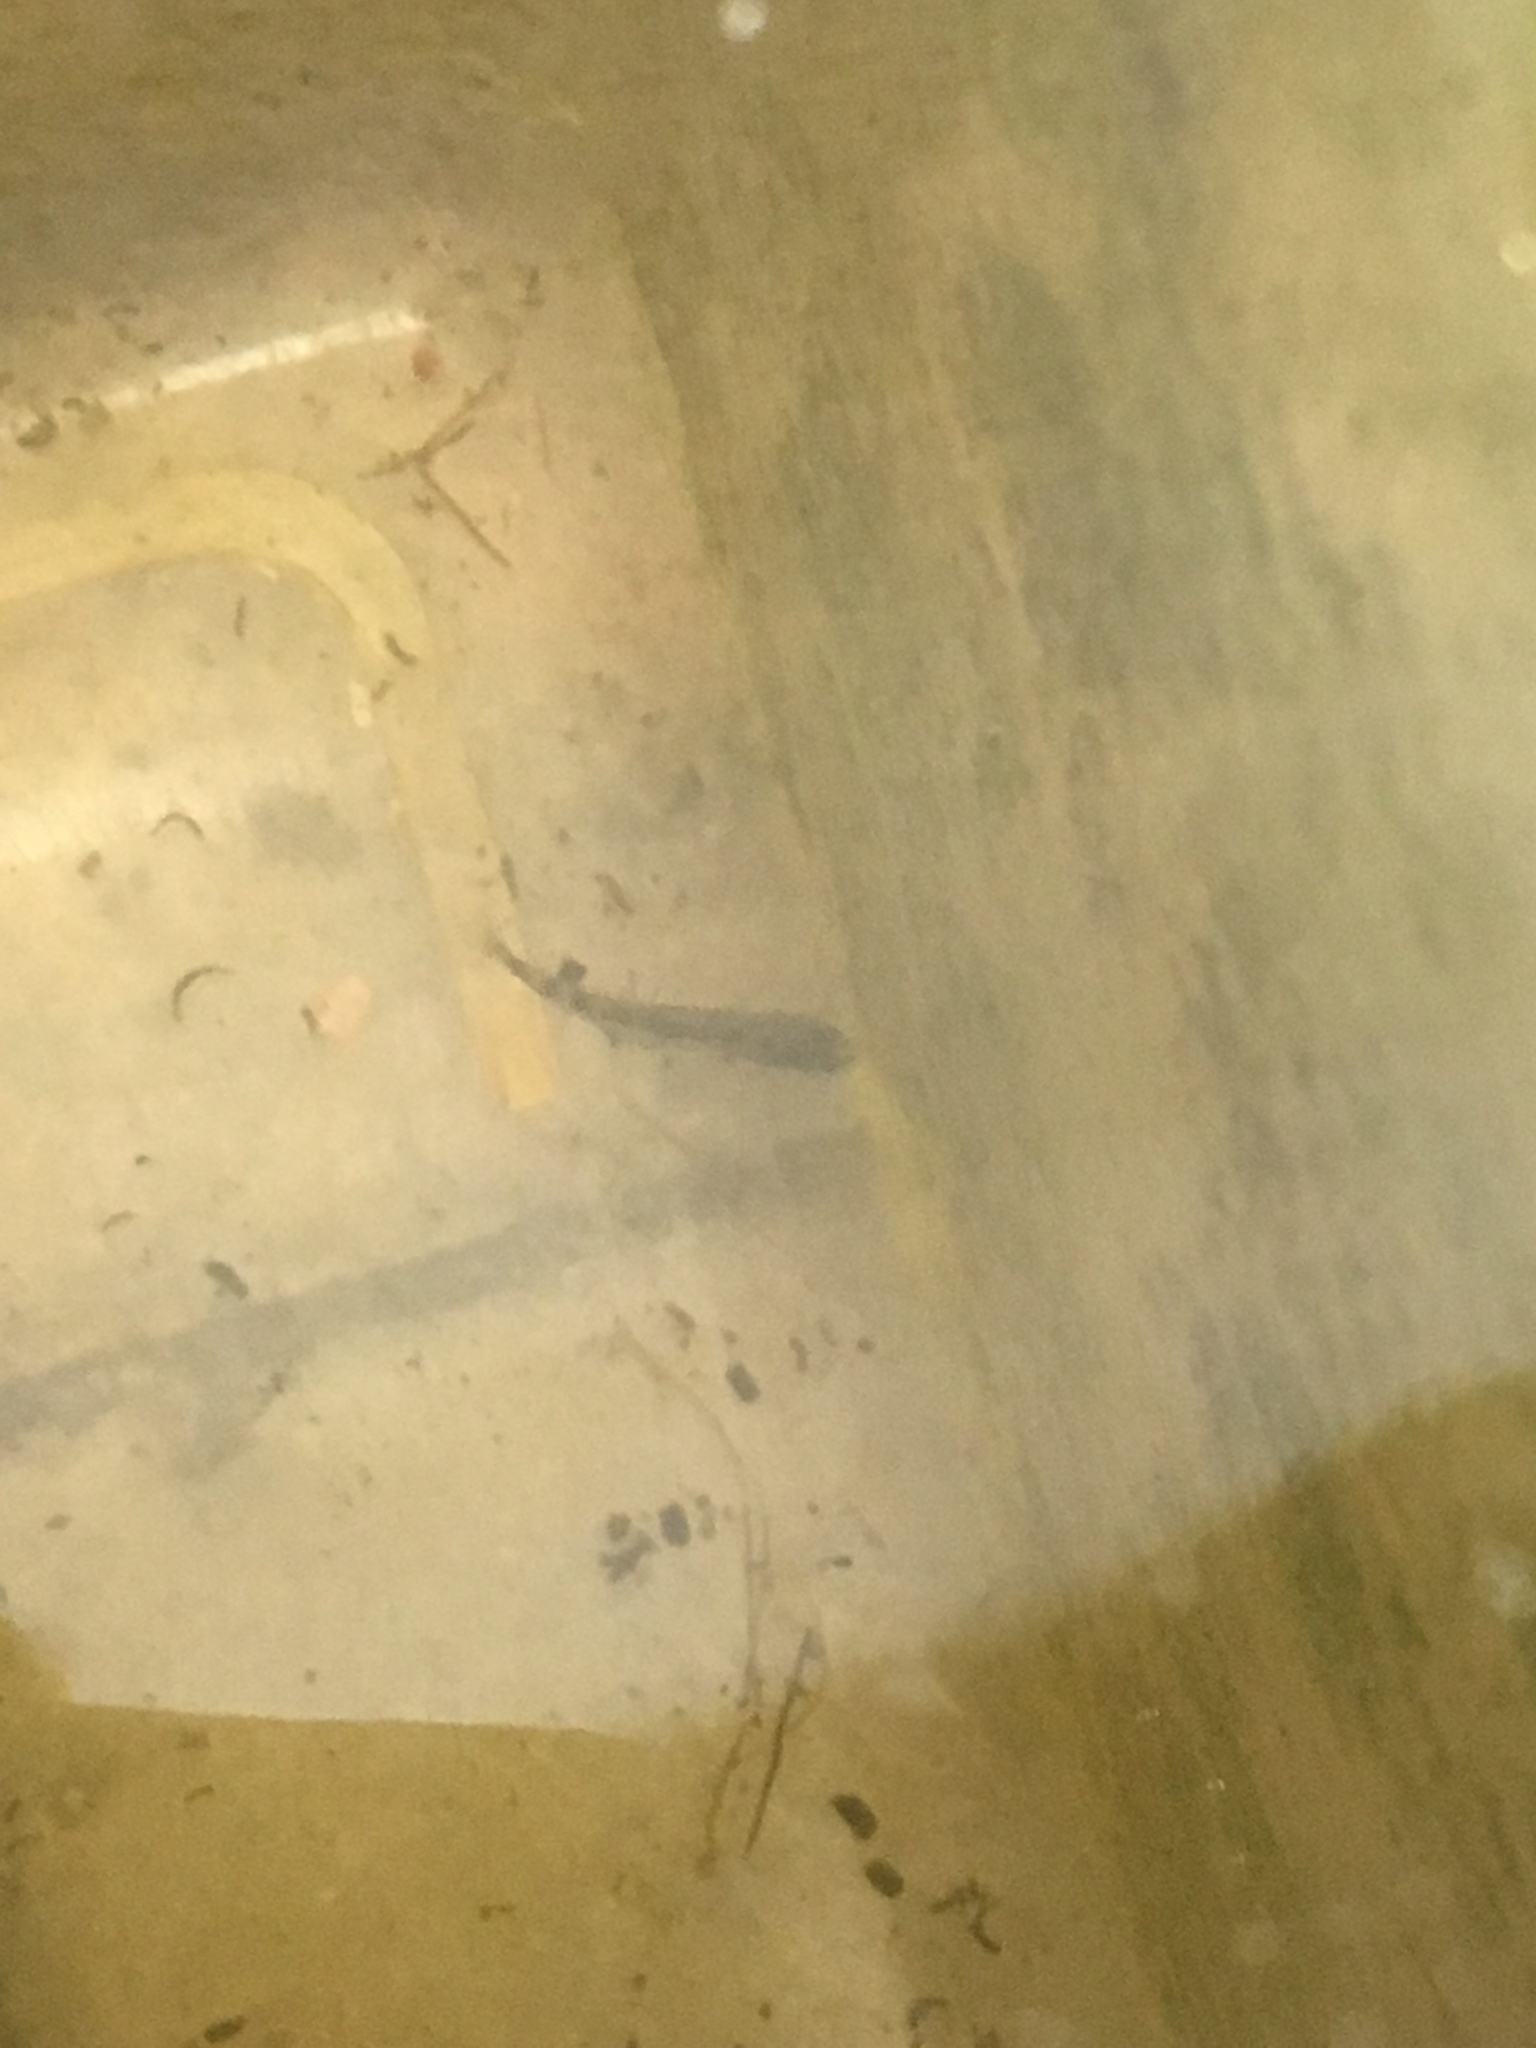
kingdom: Animalia
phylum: Chordata
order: Gasterosteiformes
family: Gasterosteidae
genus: Gasterosteus
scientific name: Gasterosteus aculeatus
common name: Three-spined stickleback
